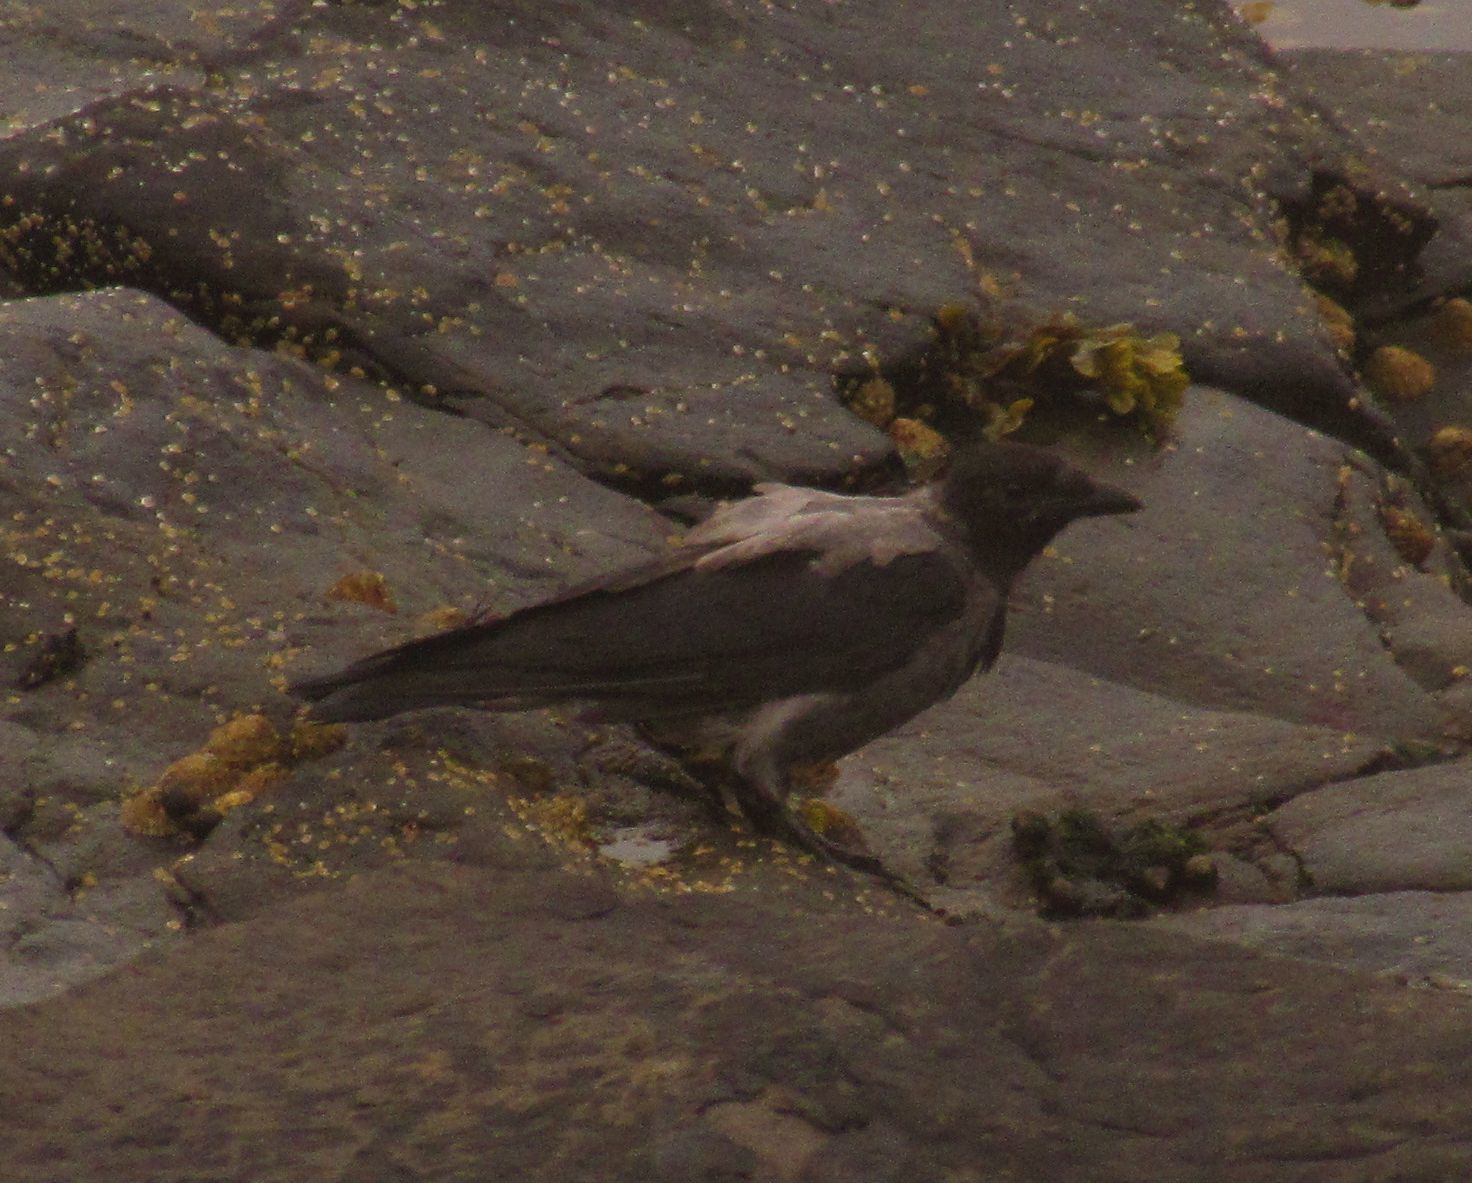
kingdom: Animalia
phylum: Chordata
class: Aves
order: Passeriformes
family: Corvidae
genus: Corvus
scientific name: Corvus cornix
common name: Hooded crow
